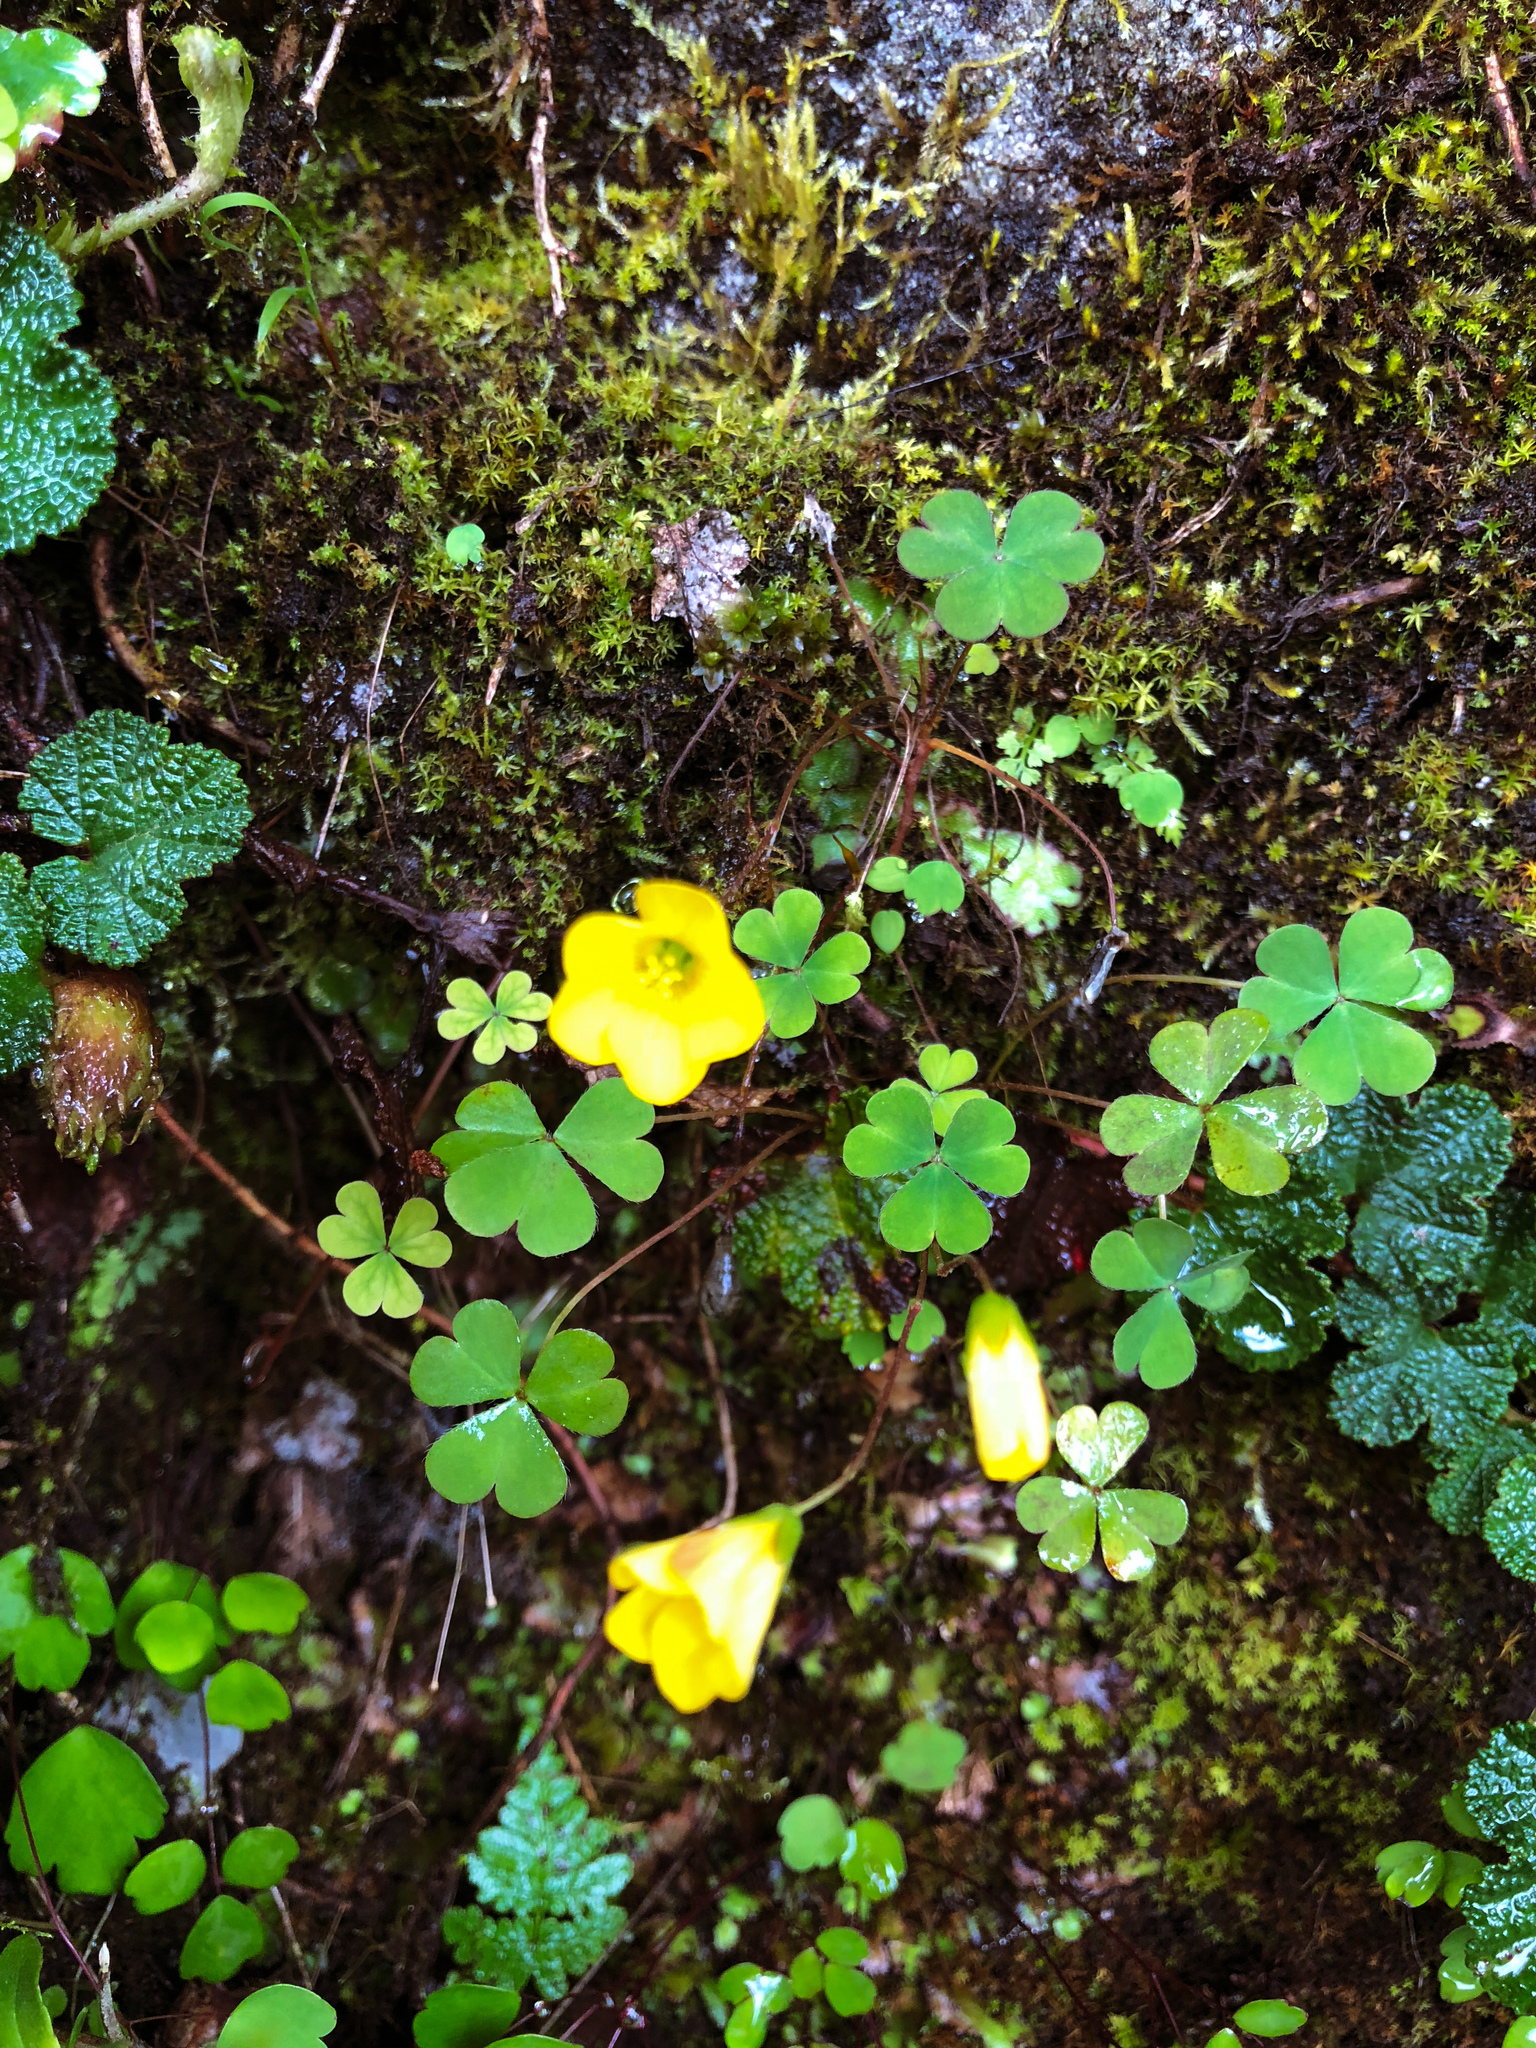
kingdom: Plantae
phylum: Tracheophyta
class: Magnoliopsida
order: Oxalidales
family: Oxalidaceae
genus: Oxalis
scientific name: Oxalis corniculata
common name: Procumbent yellow-sorrel
